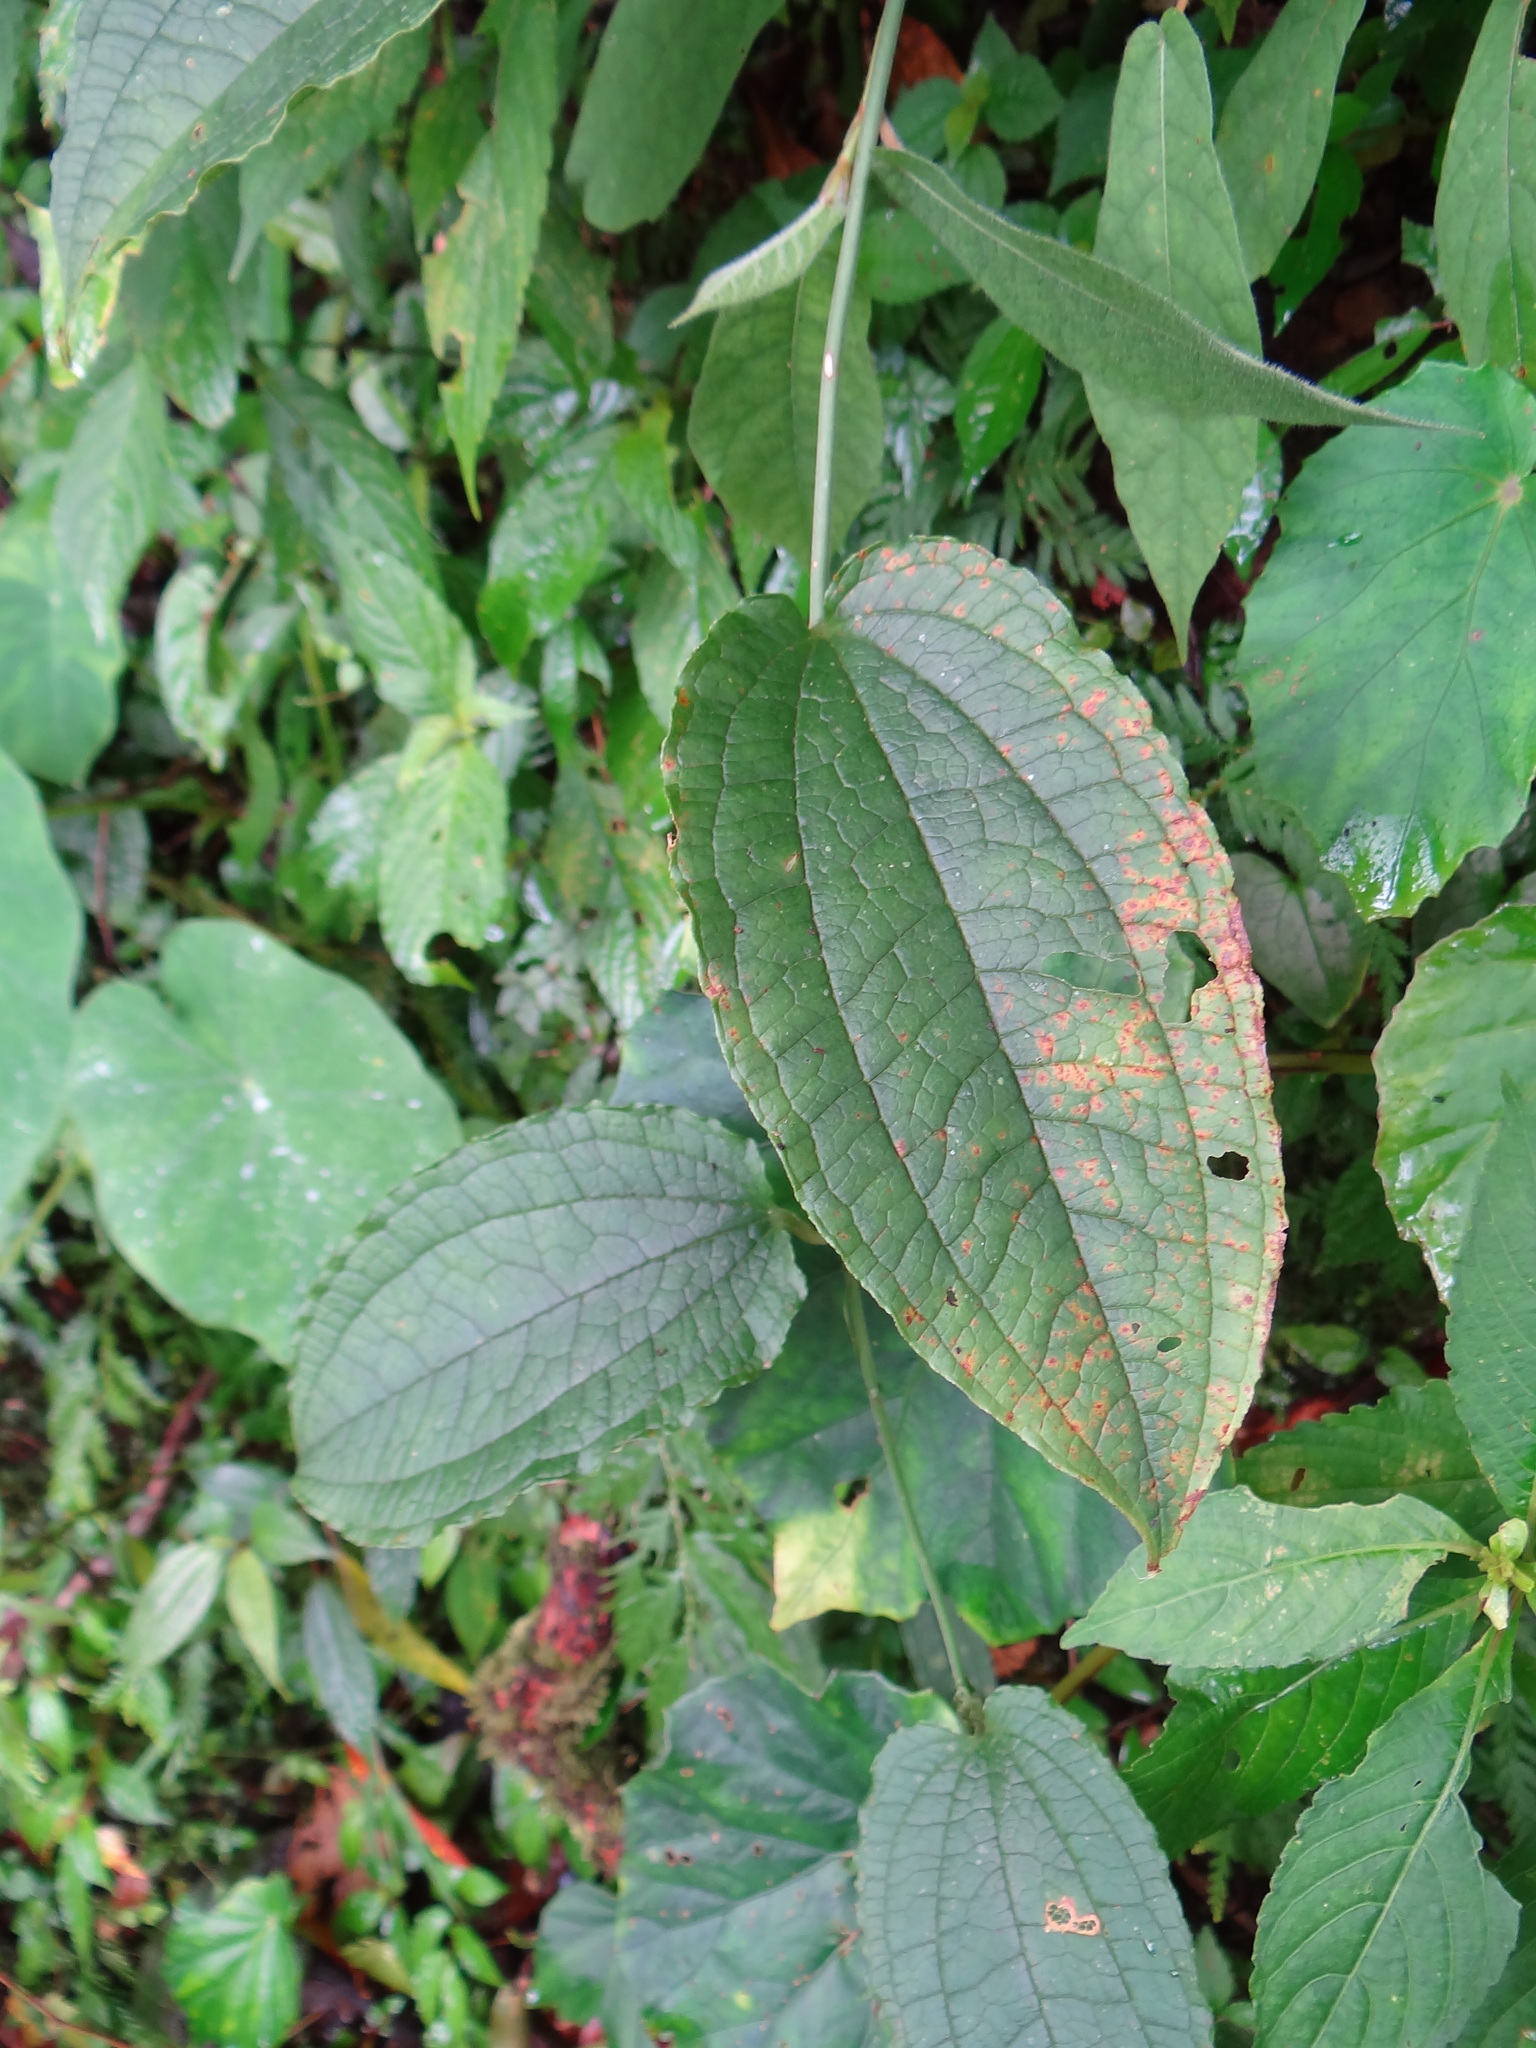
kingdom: Plantae
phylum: Tracheophyta
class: Liliopsida
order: Liliales
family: Smilacaceae
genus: Smilax
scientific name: Smilax riparia
